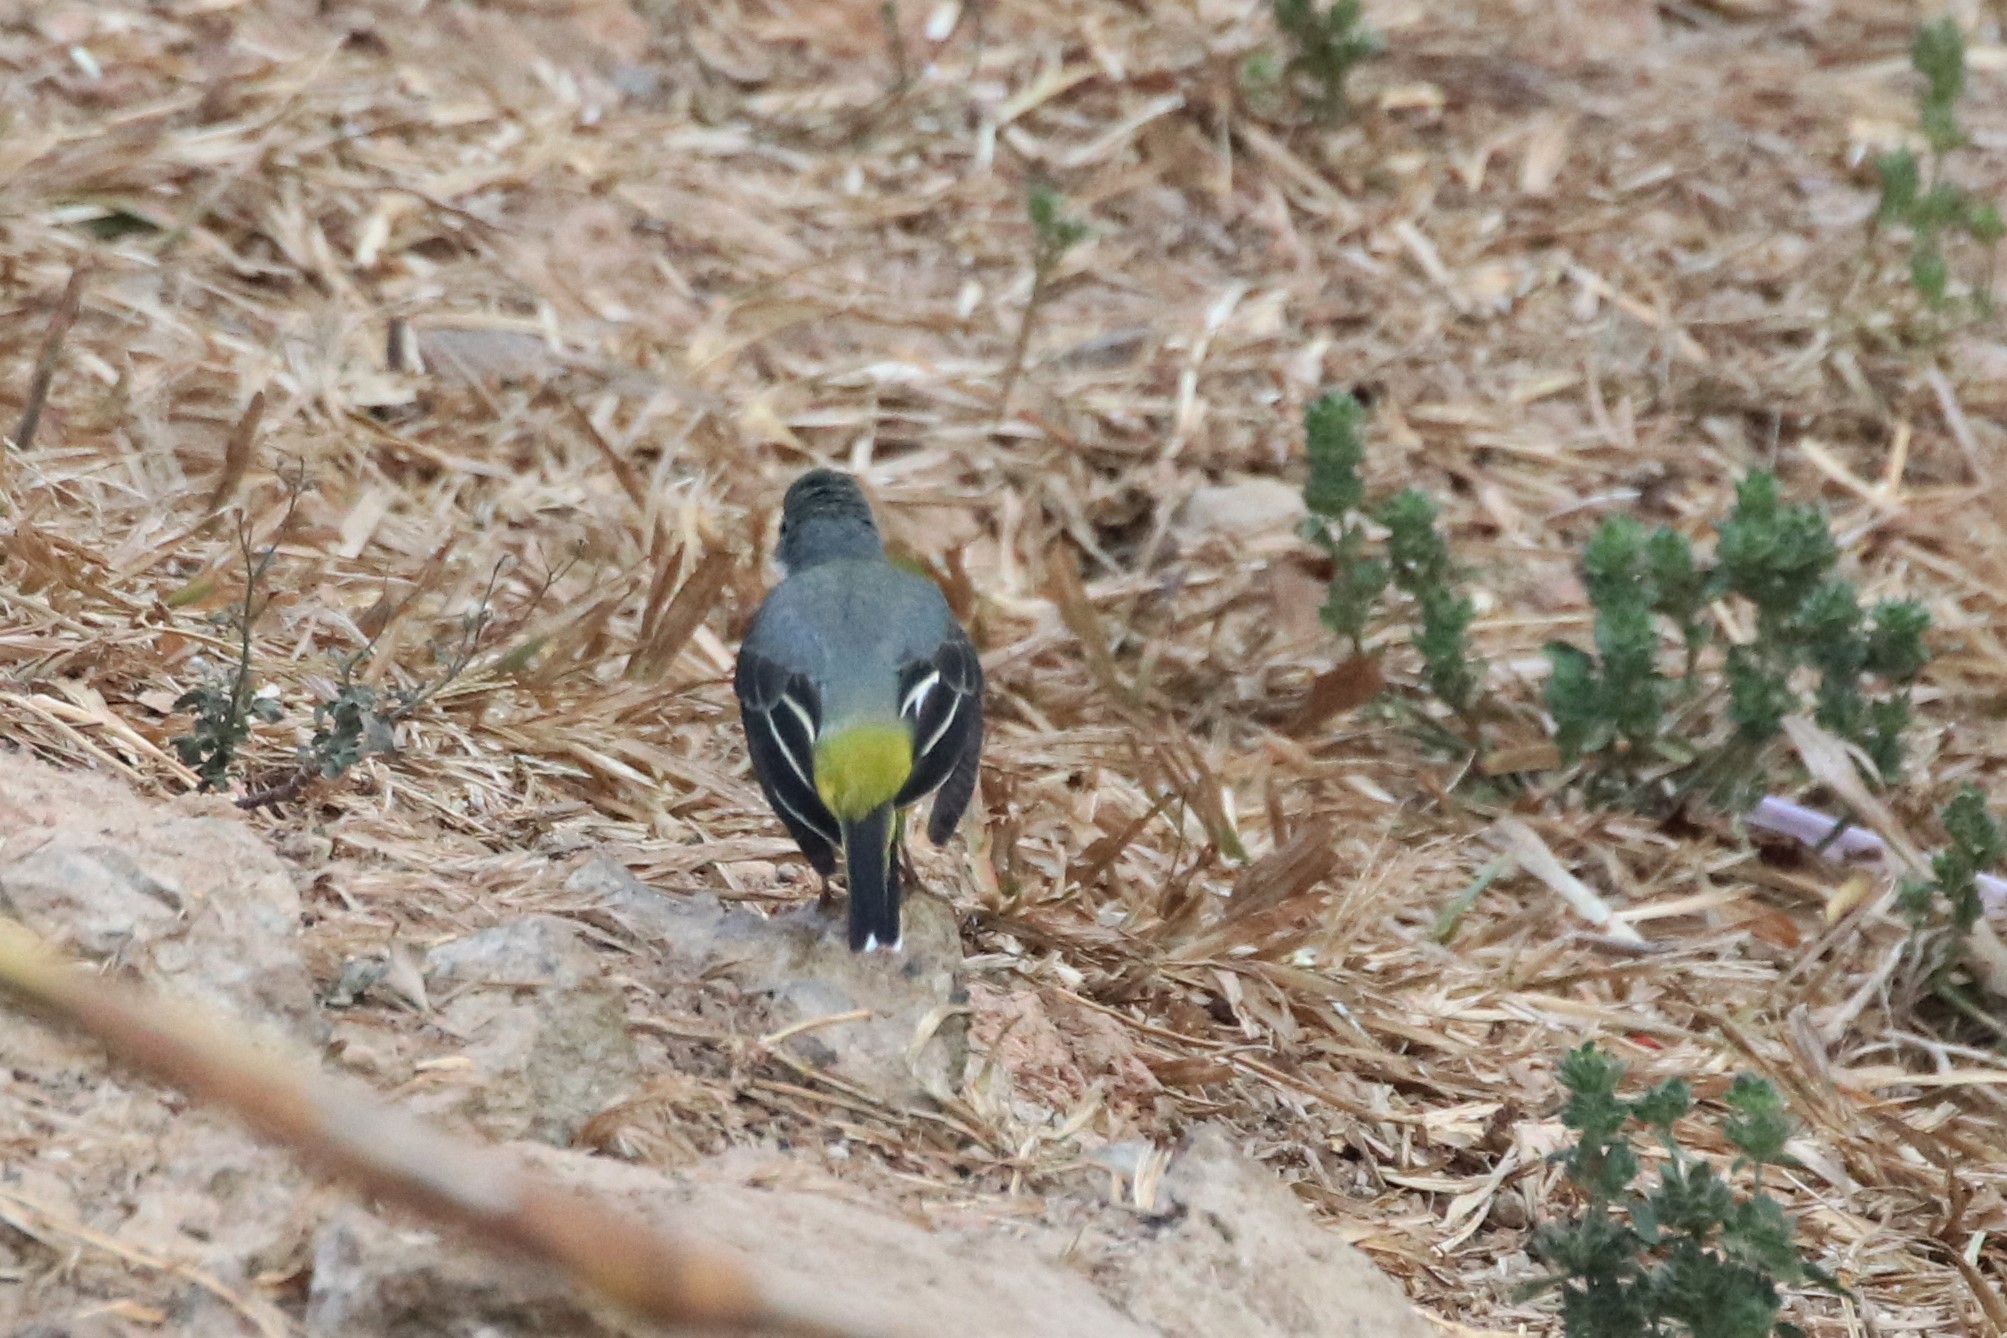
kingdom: Animalia
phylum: Chordata
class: Aves
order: Passeriformes
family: Motacillidae
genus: Motacilla
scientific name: Motacilla cinerea
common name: Grey wagtail
